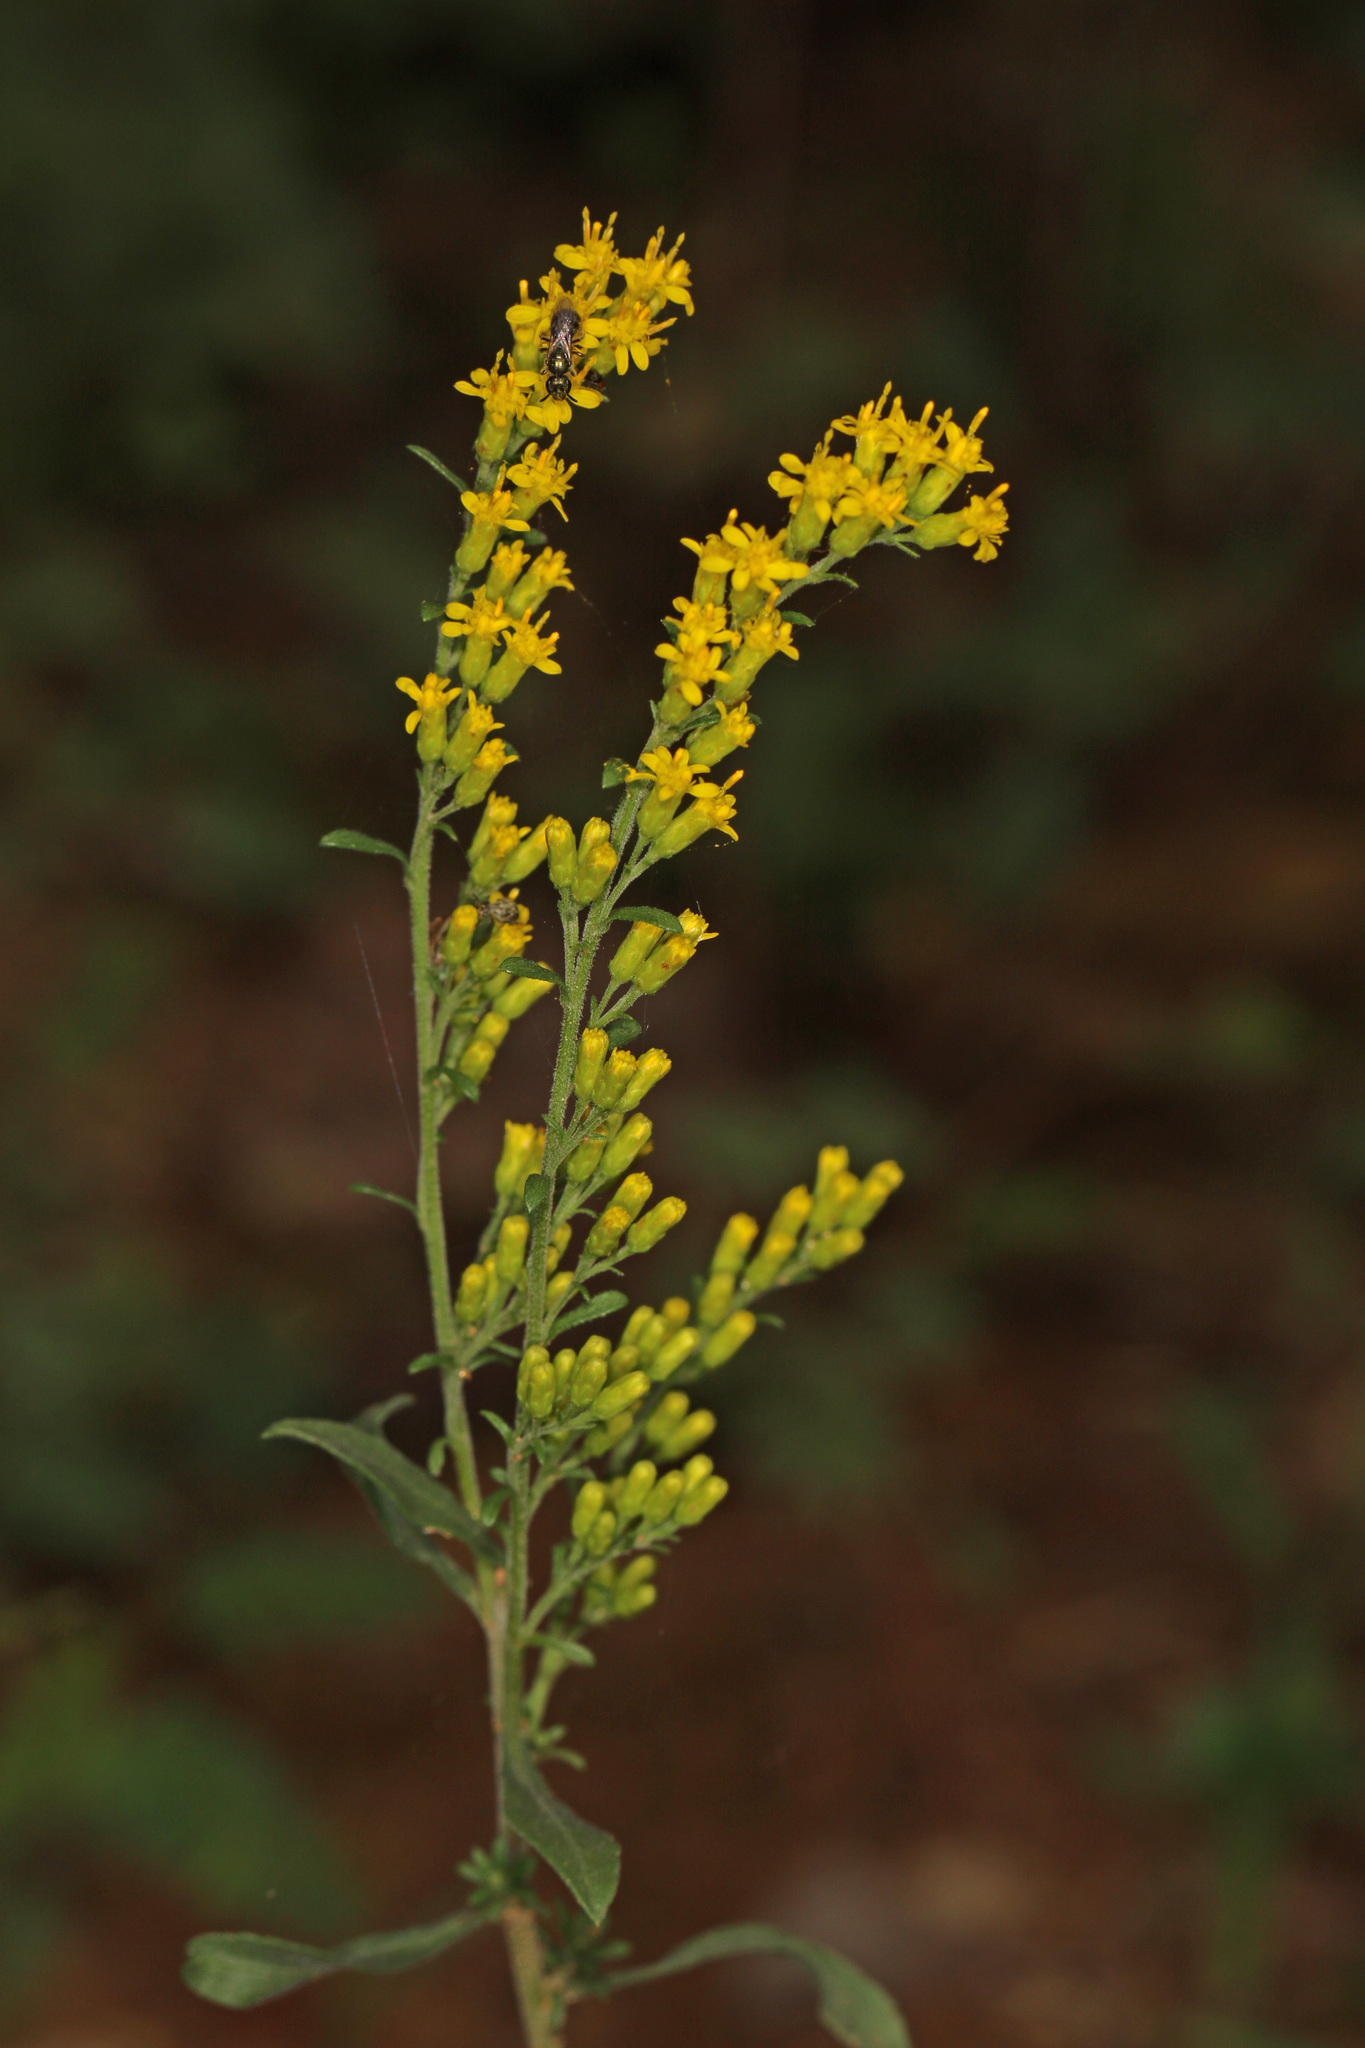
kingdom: Plantae
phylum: Tracheophyta
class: Magnoliopsida
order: Asterales
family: Asteraceae
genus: Solidago
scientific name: Solidago nemoralis
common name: Grey goldenrod
